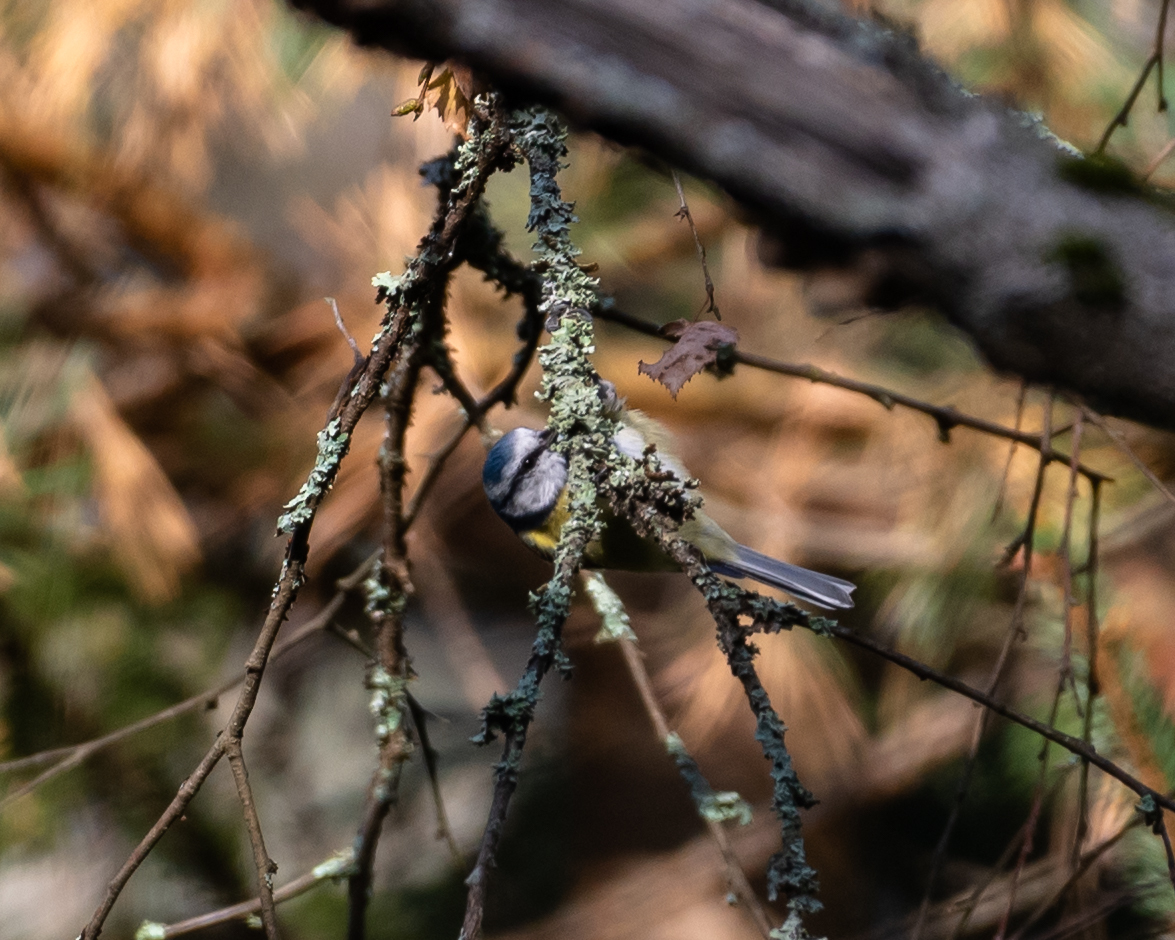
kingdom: Animalia
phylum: Chordata
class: Aves
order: Passeriformes
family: Paridae
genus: Cyanistes
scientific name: Cyanistes caeruleus
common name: Eurasian blue tit
